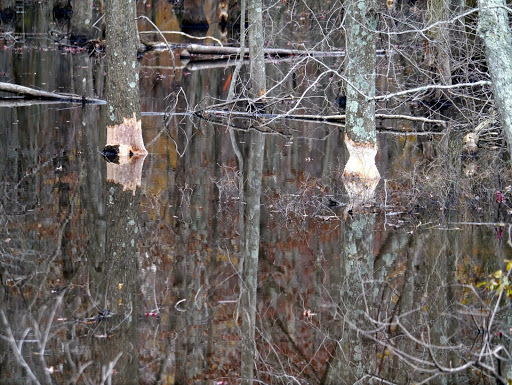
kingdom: Animalia
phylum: Chordata
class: Mammalia
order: Rodentia
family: Castoridae
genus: Castor
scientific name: Castor canadensis
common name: American beaver
